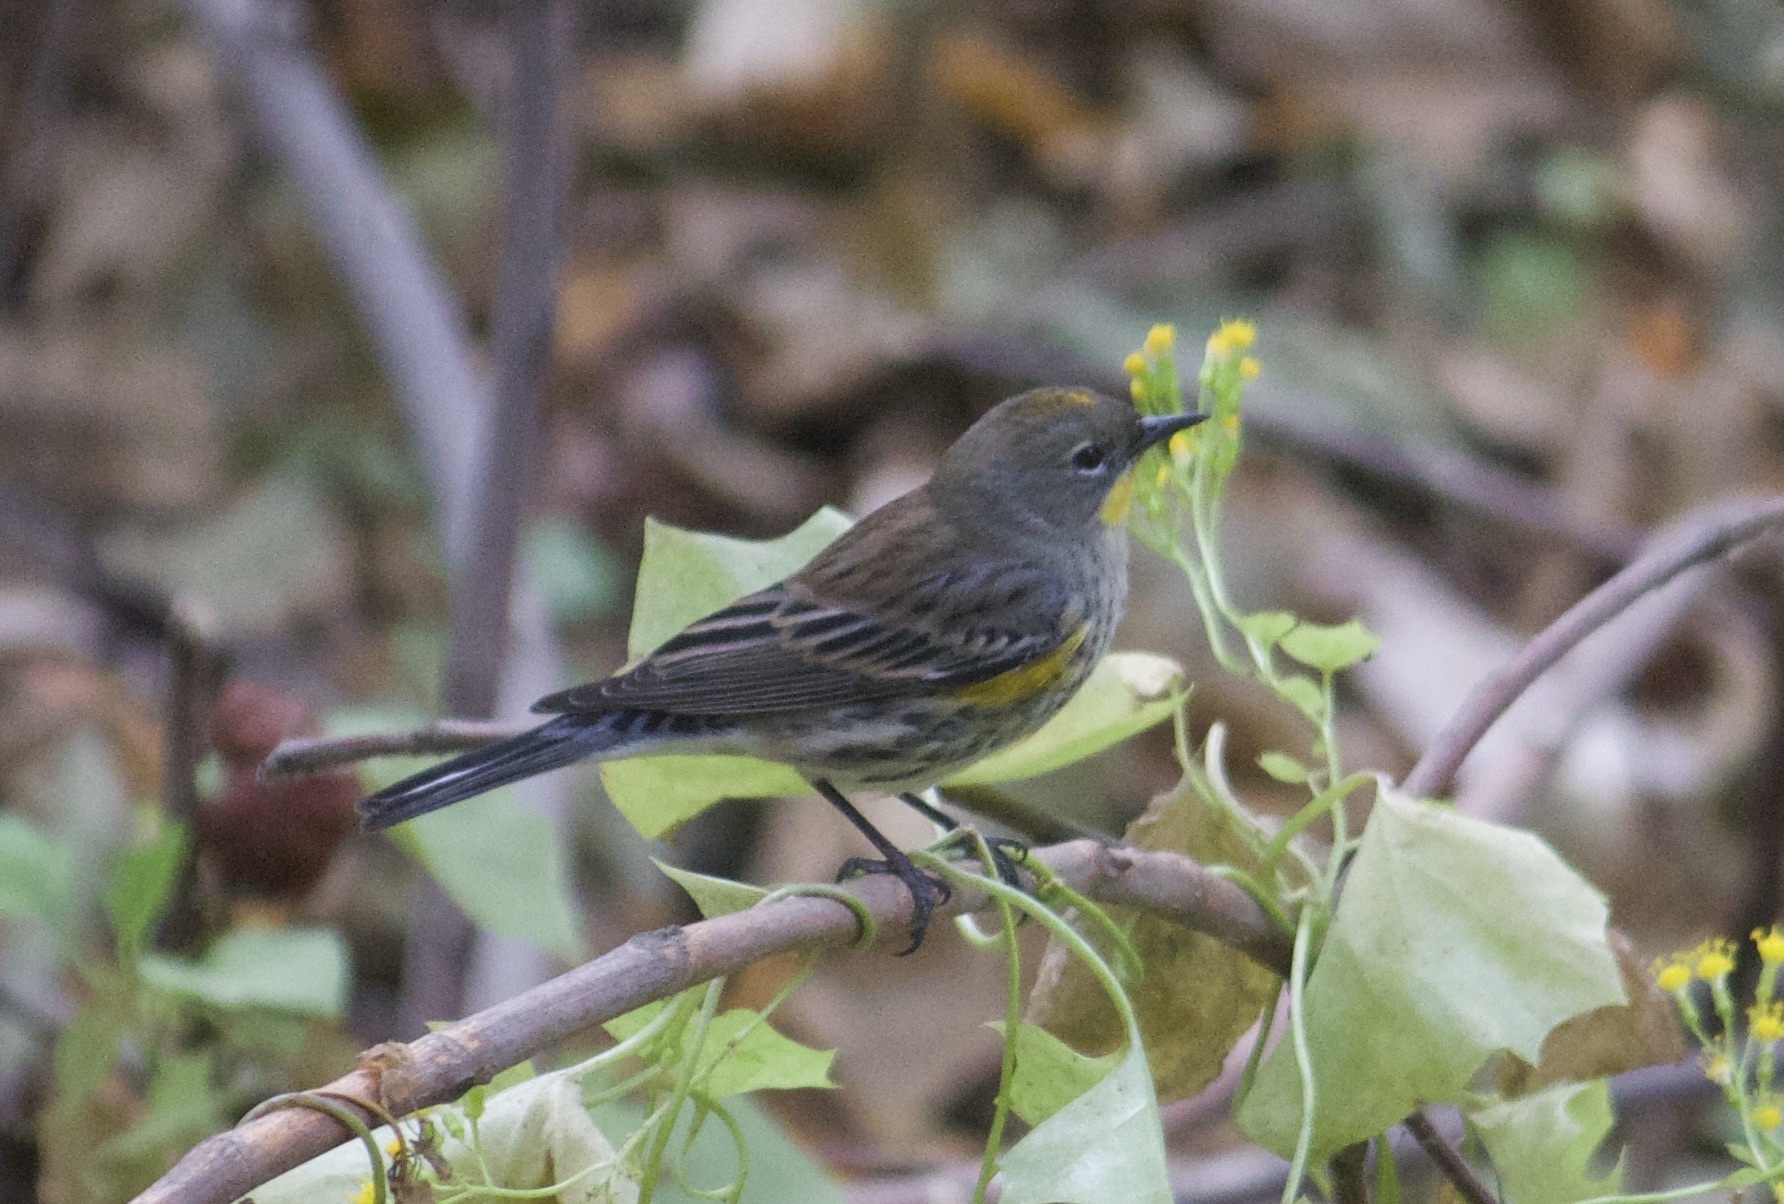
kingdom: Animalia
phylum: Chordata
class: Aves
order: Passeriformes
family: Parulidae
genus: Setophaga
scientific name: Setophaga coronata
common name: Myrtle warbler
